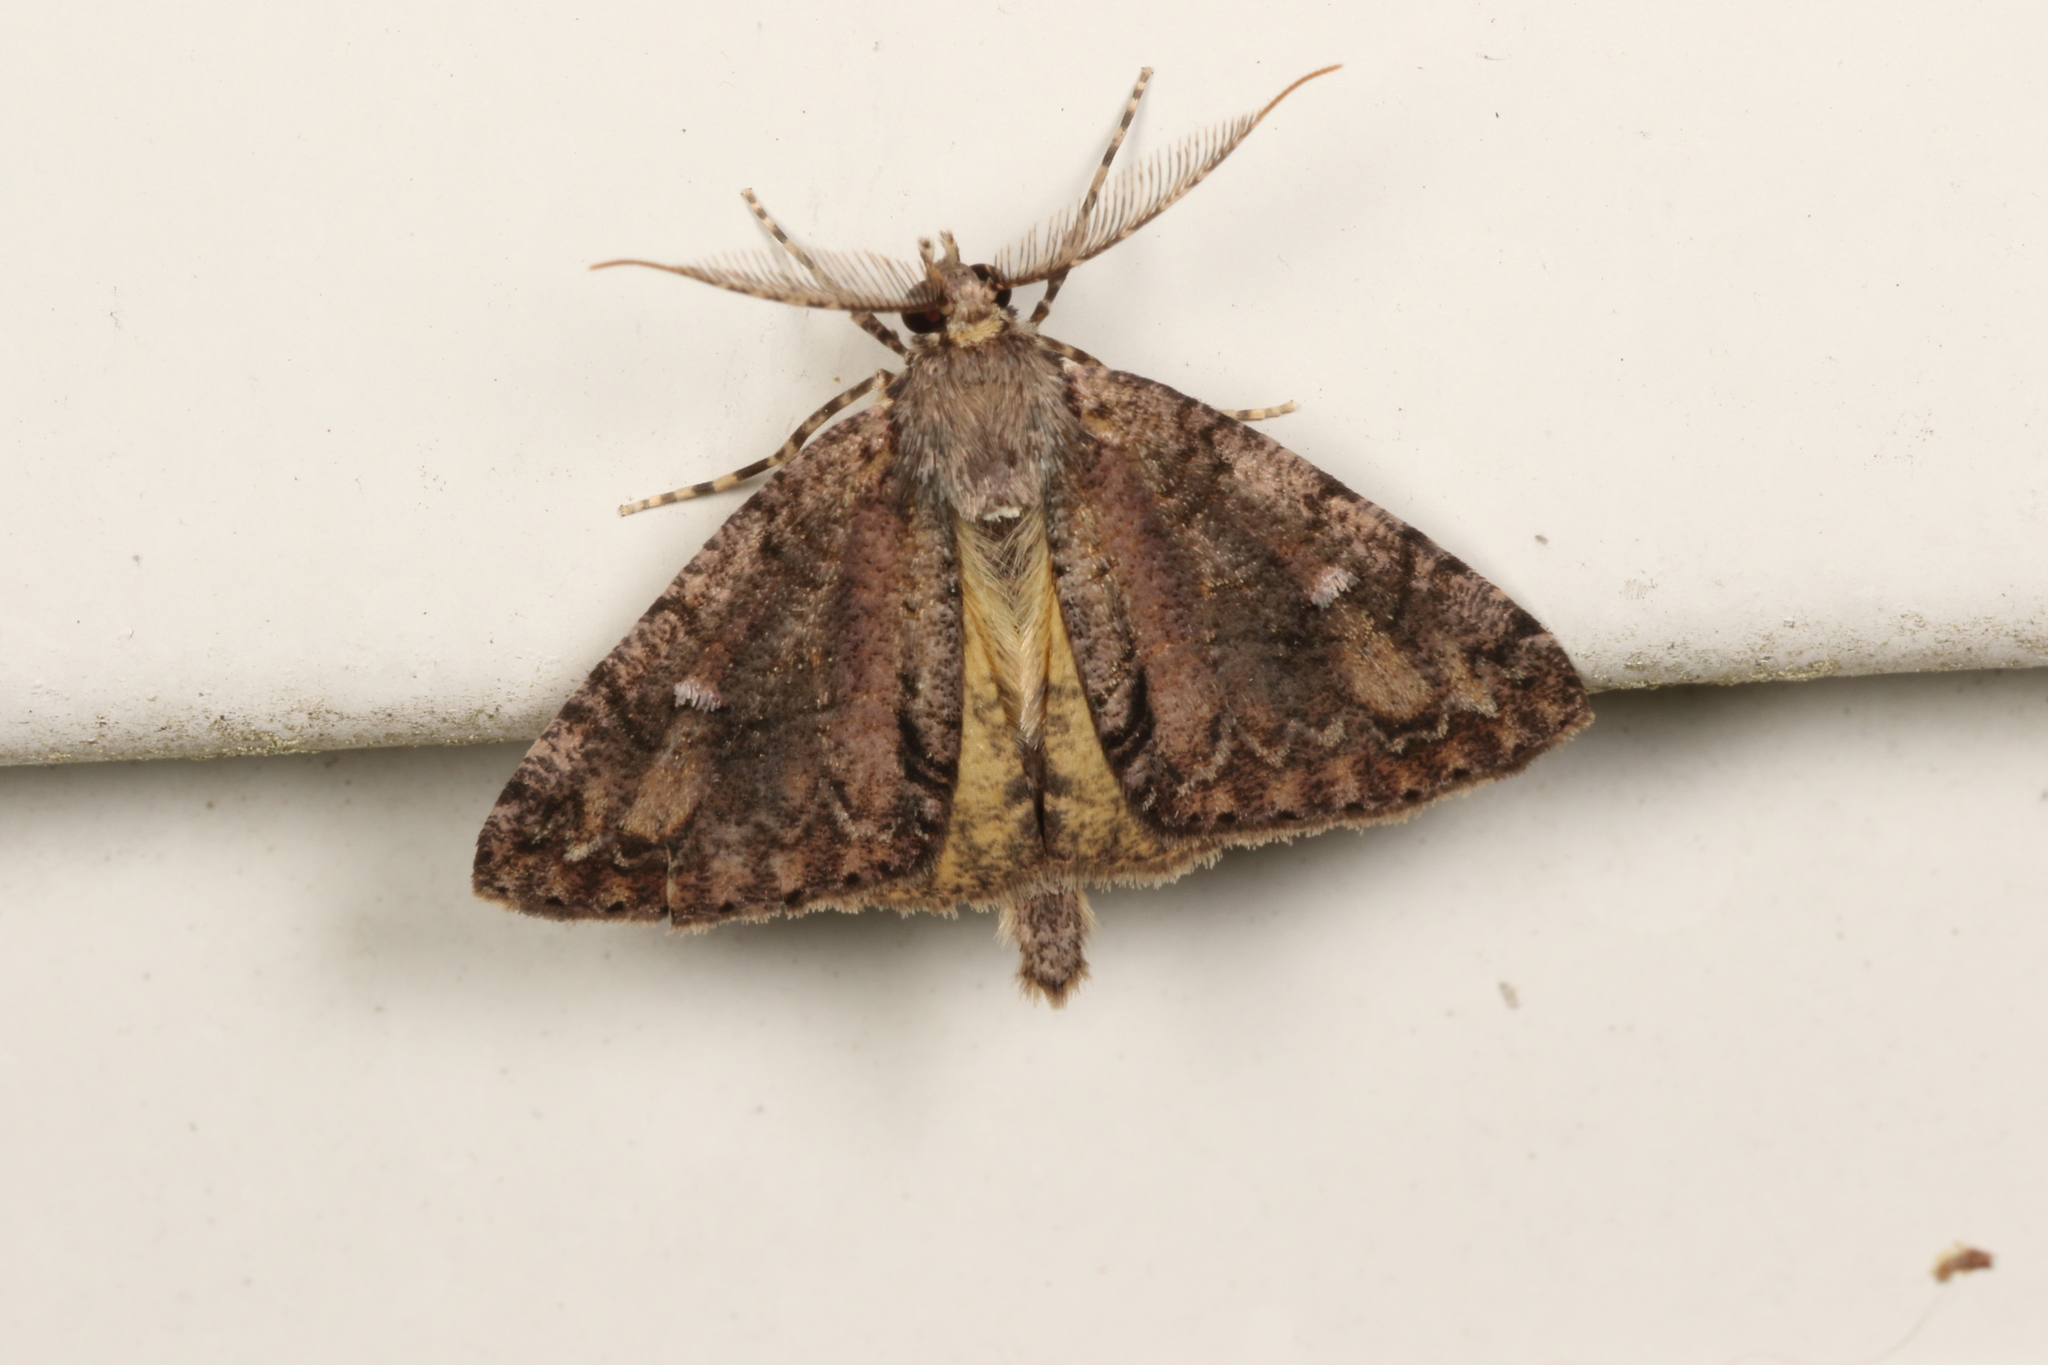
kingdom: Animalia
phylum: Arthropoda
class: Insecta
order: Lepidoptera
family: Geometridae
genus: Pseudocoremia
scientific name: Pseudocoremia suavis
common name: Common forest looper
